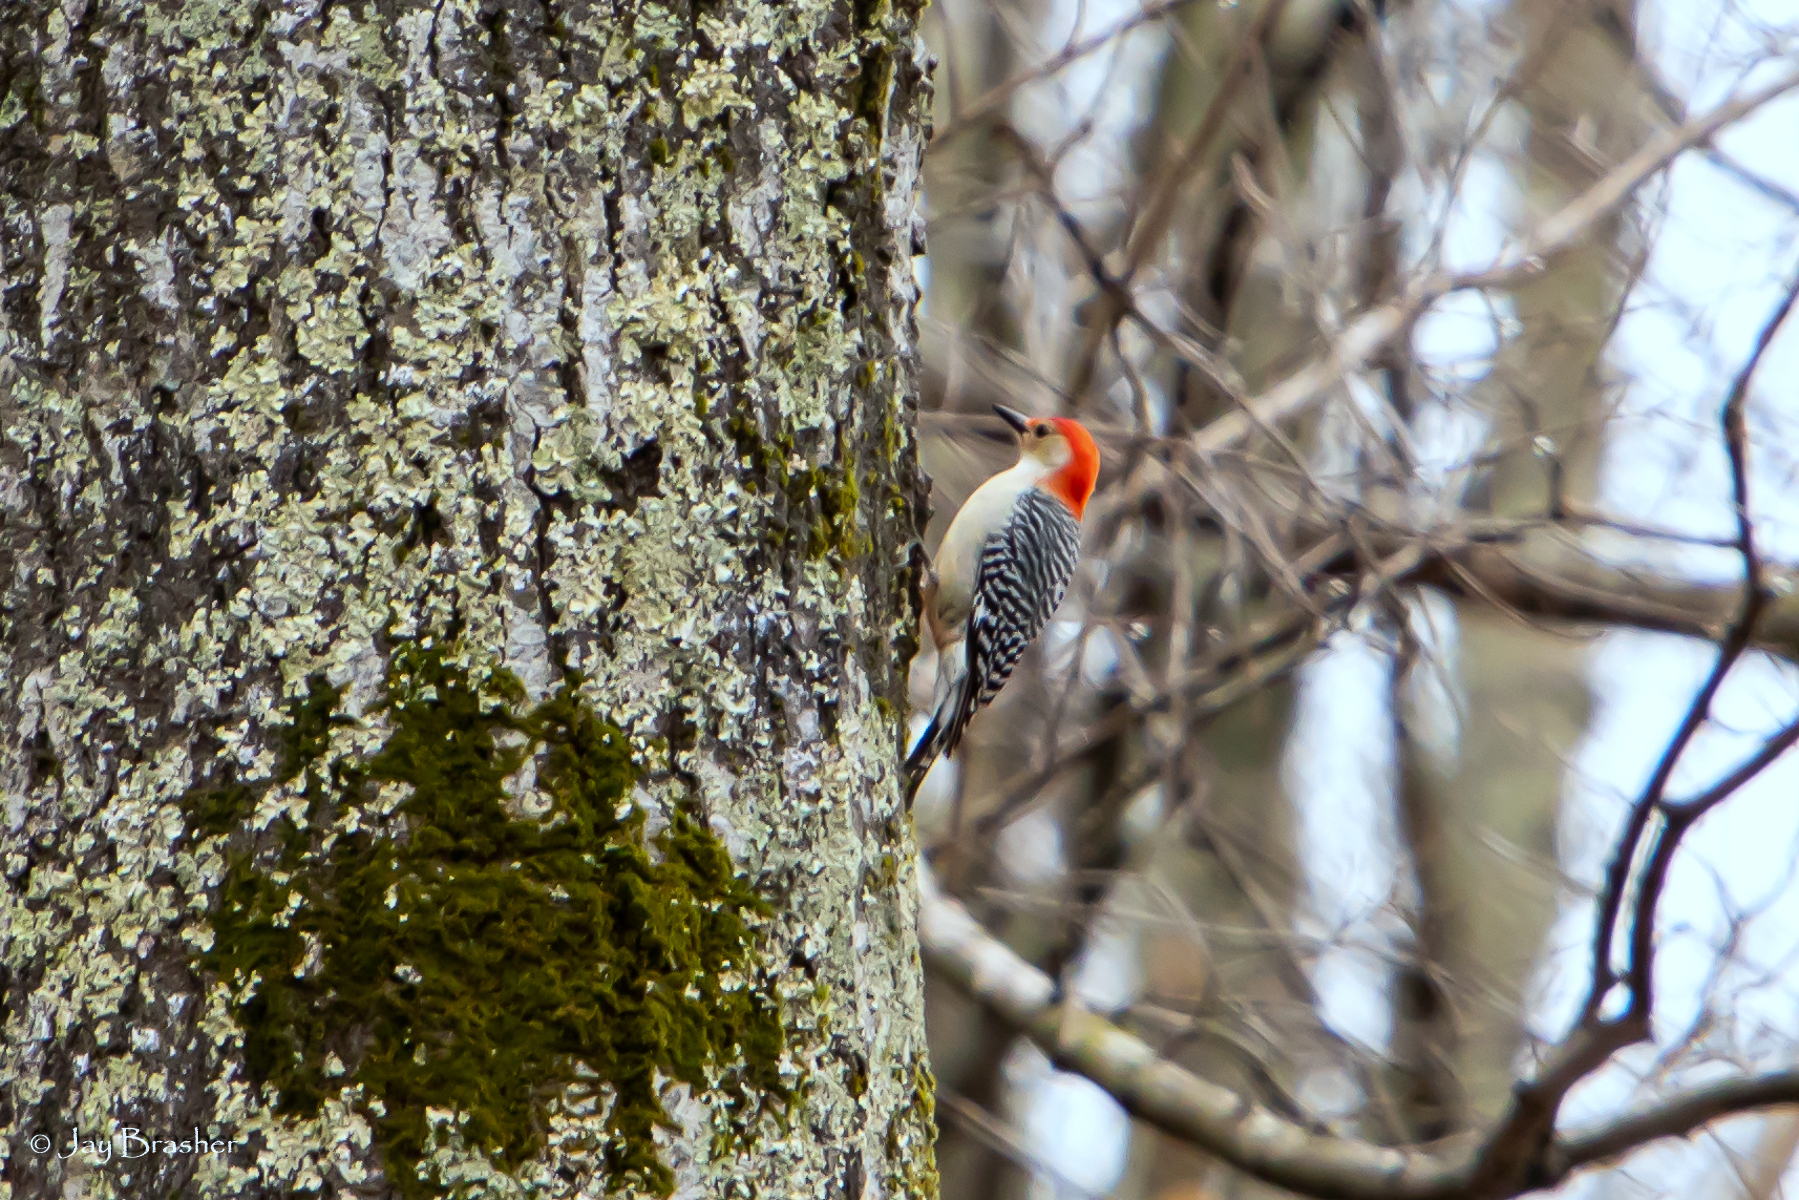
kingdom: Animalia
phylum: Chordata
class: Aves
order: Piciformes
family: Picidae
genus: Melanerpes
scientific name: Melanerpes carolinus
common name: Red-bellied woodpecker
